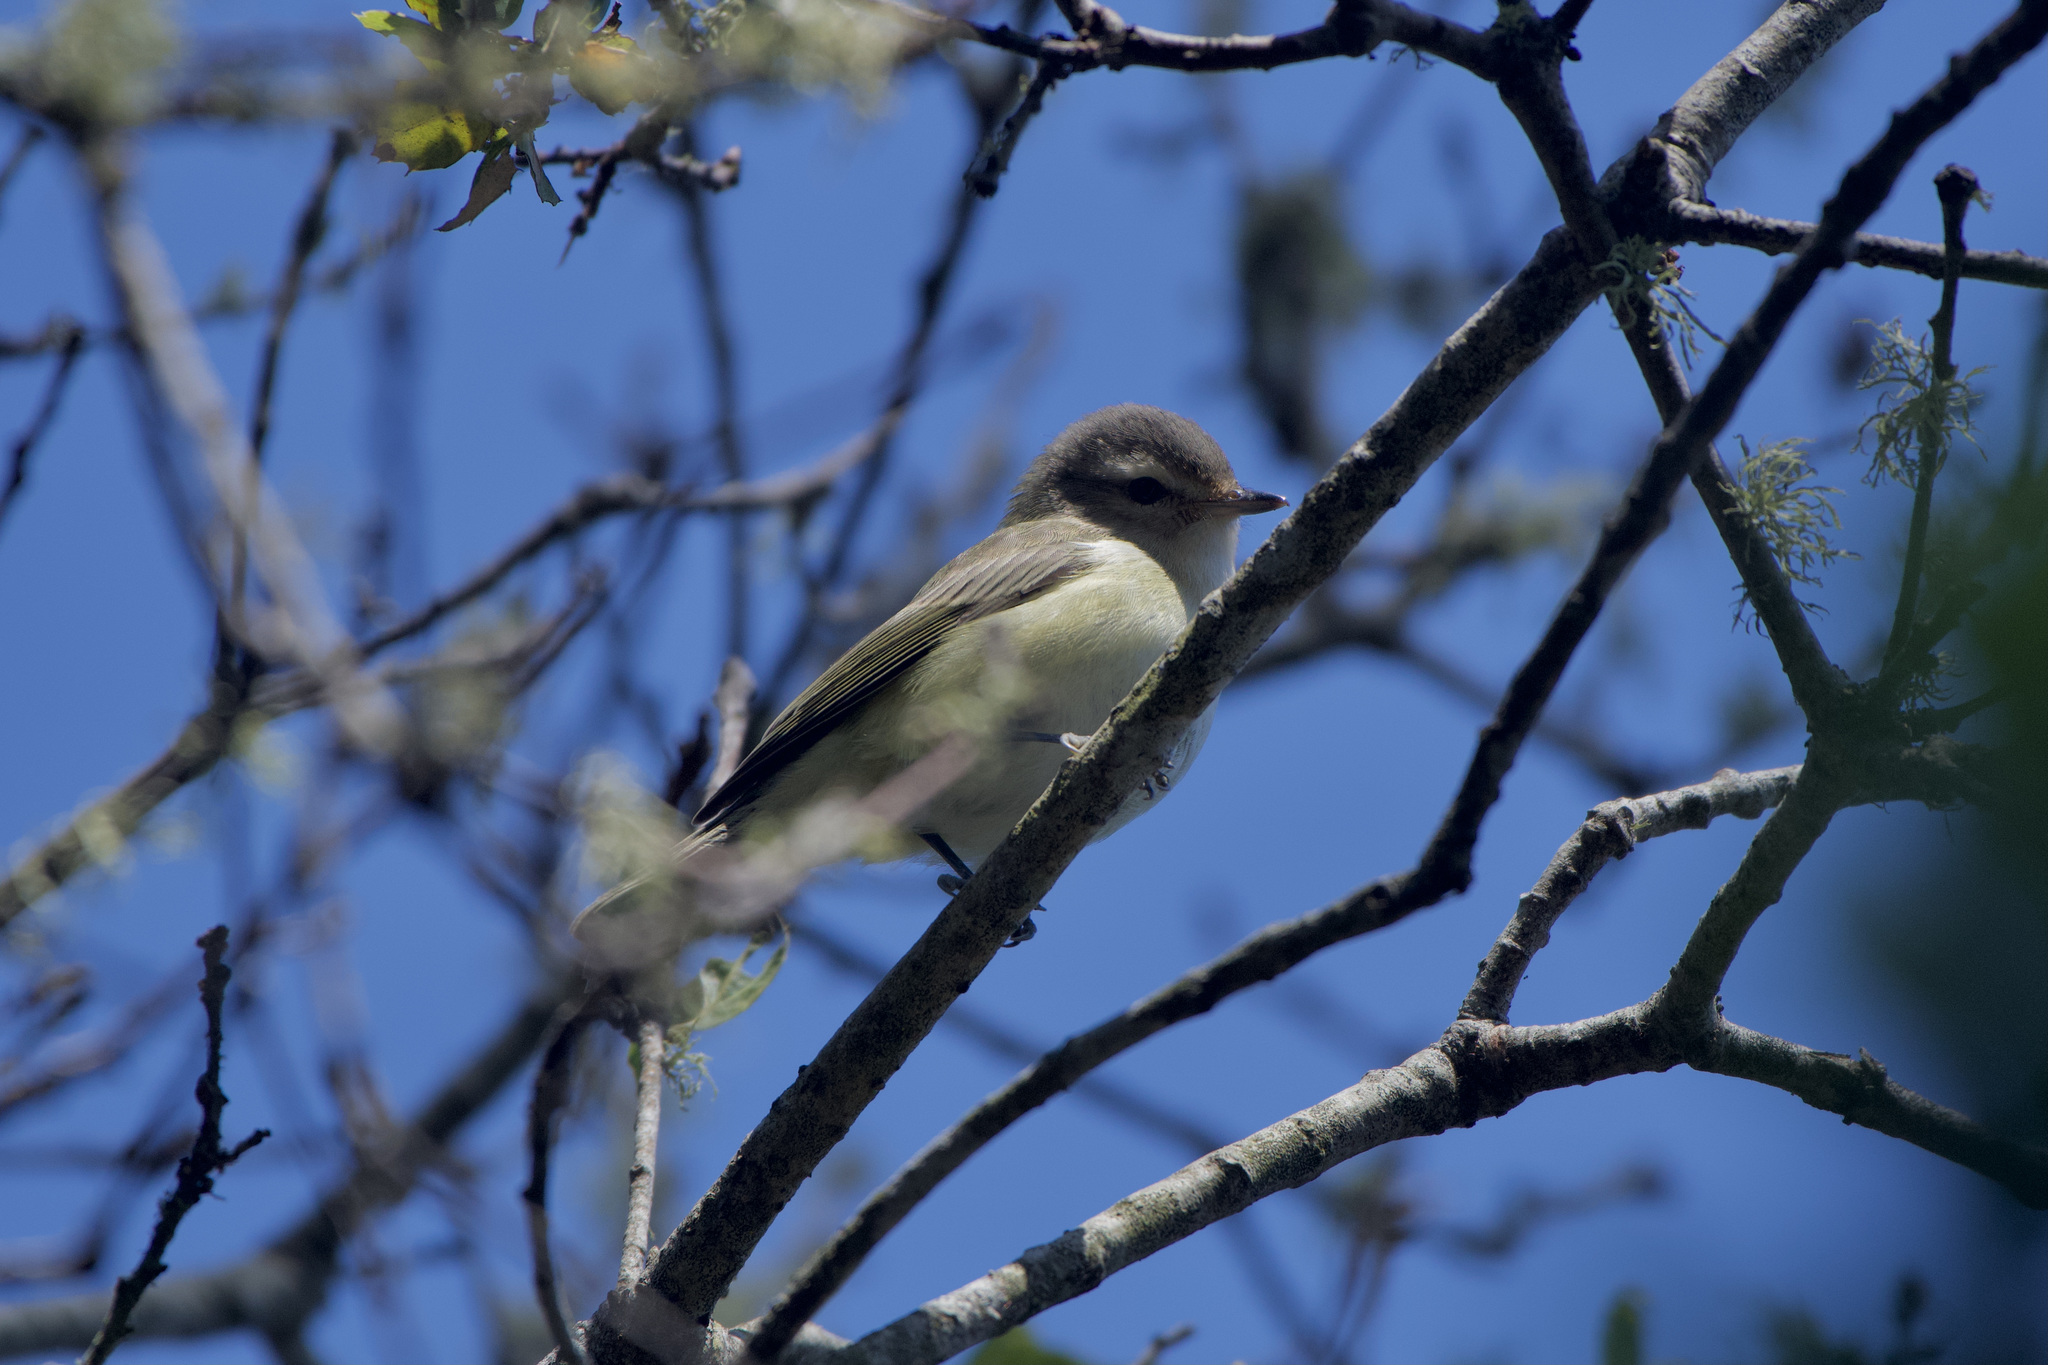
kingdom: Animalia
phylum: Chordata
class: Aves
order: Passeriformes
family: Vireonidae
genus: Vireo
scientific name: Vireo gilvus
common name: Warbling vireo
